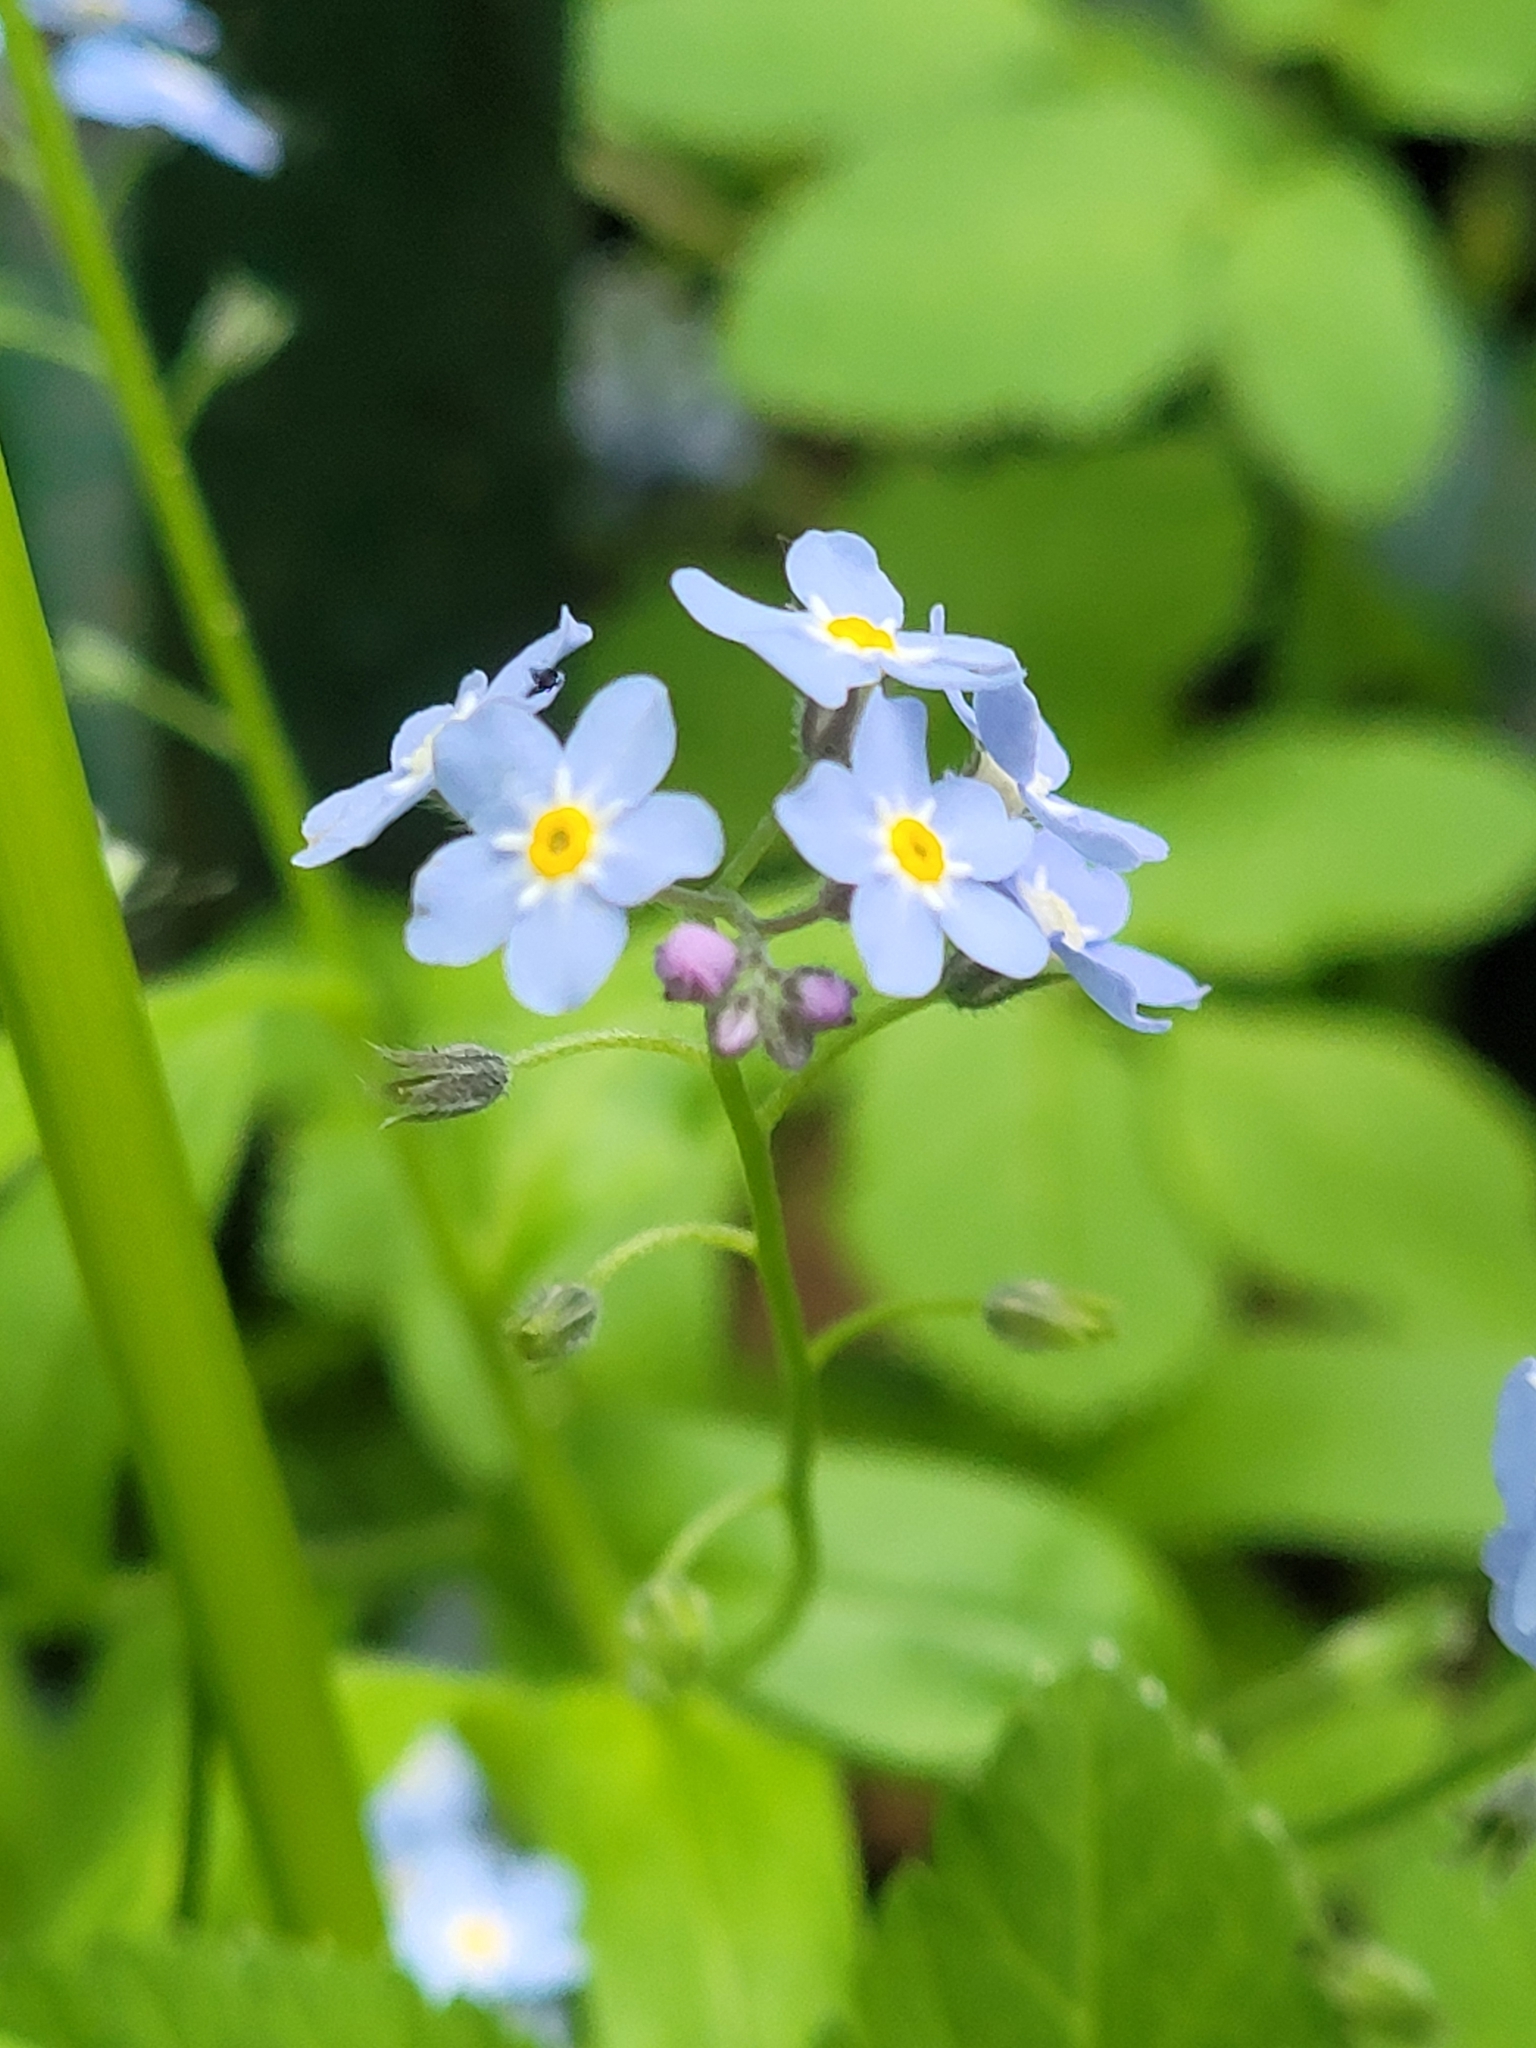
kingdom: Plantae
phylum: Tracheophyta
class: Magnoliopsida
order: Boraginales
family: Boraginaceae
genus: Myosotis
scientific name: Myosotis sylvatica
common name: Wood forget-me-not
